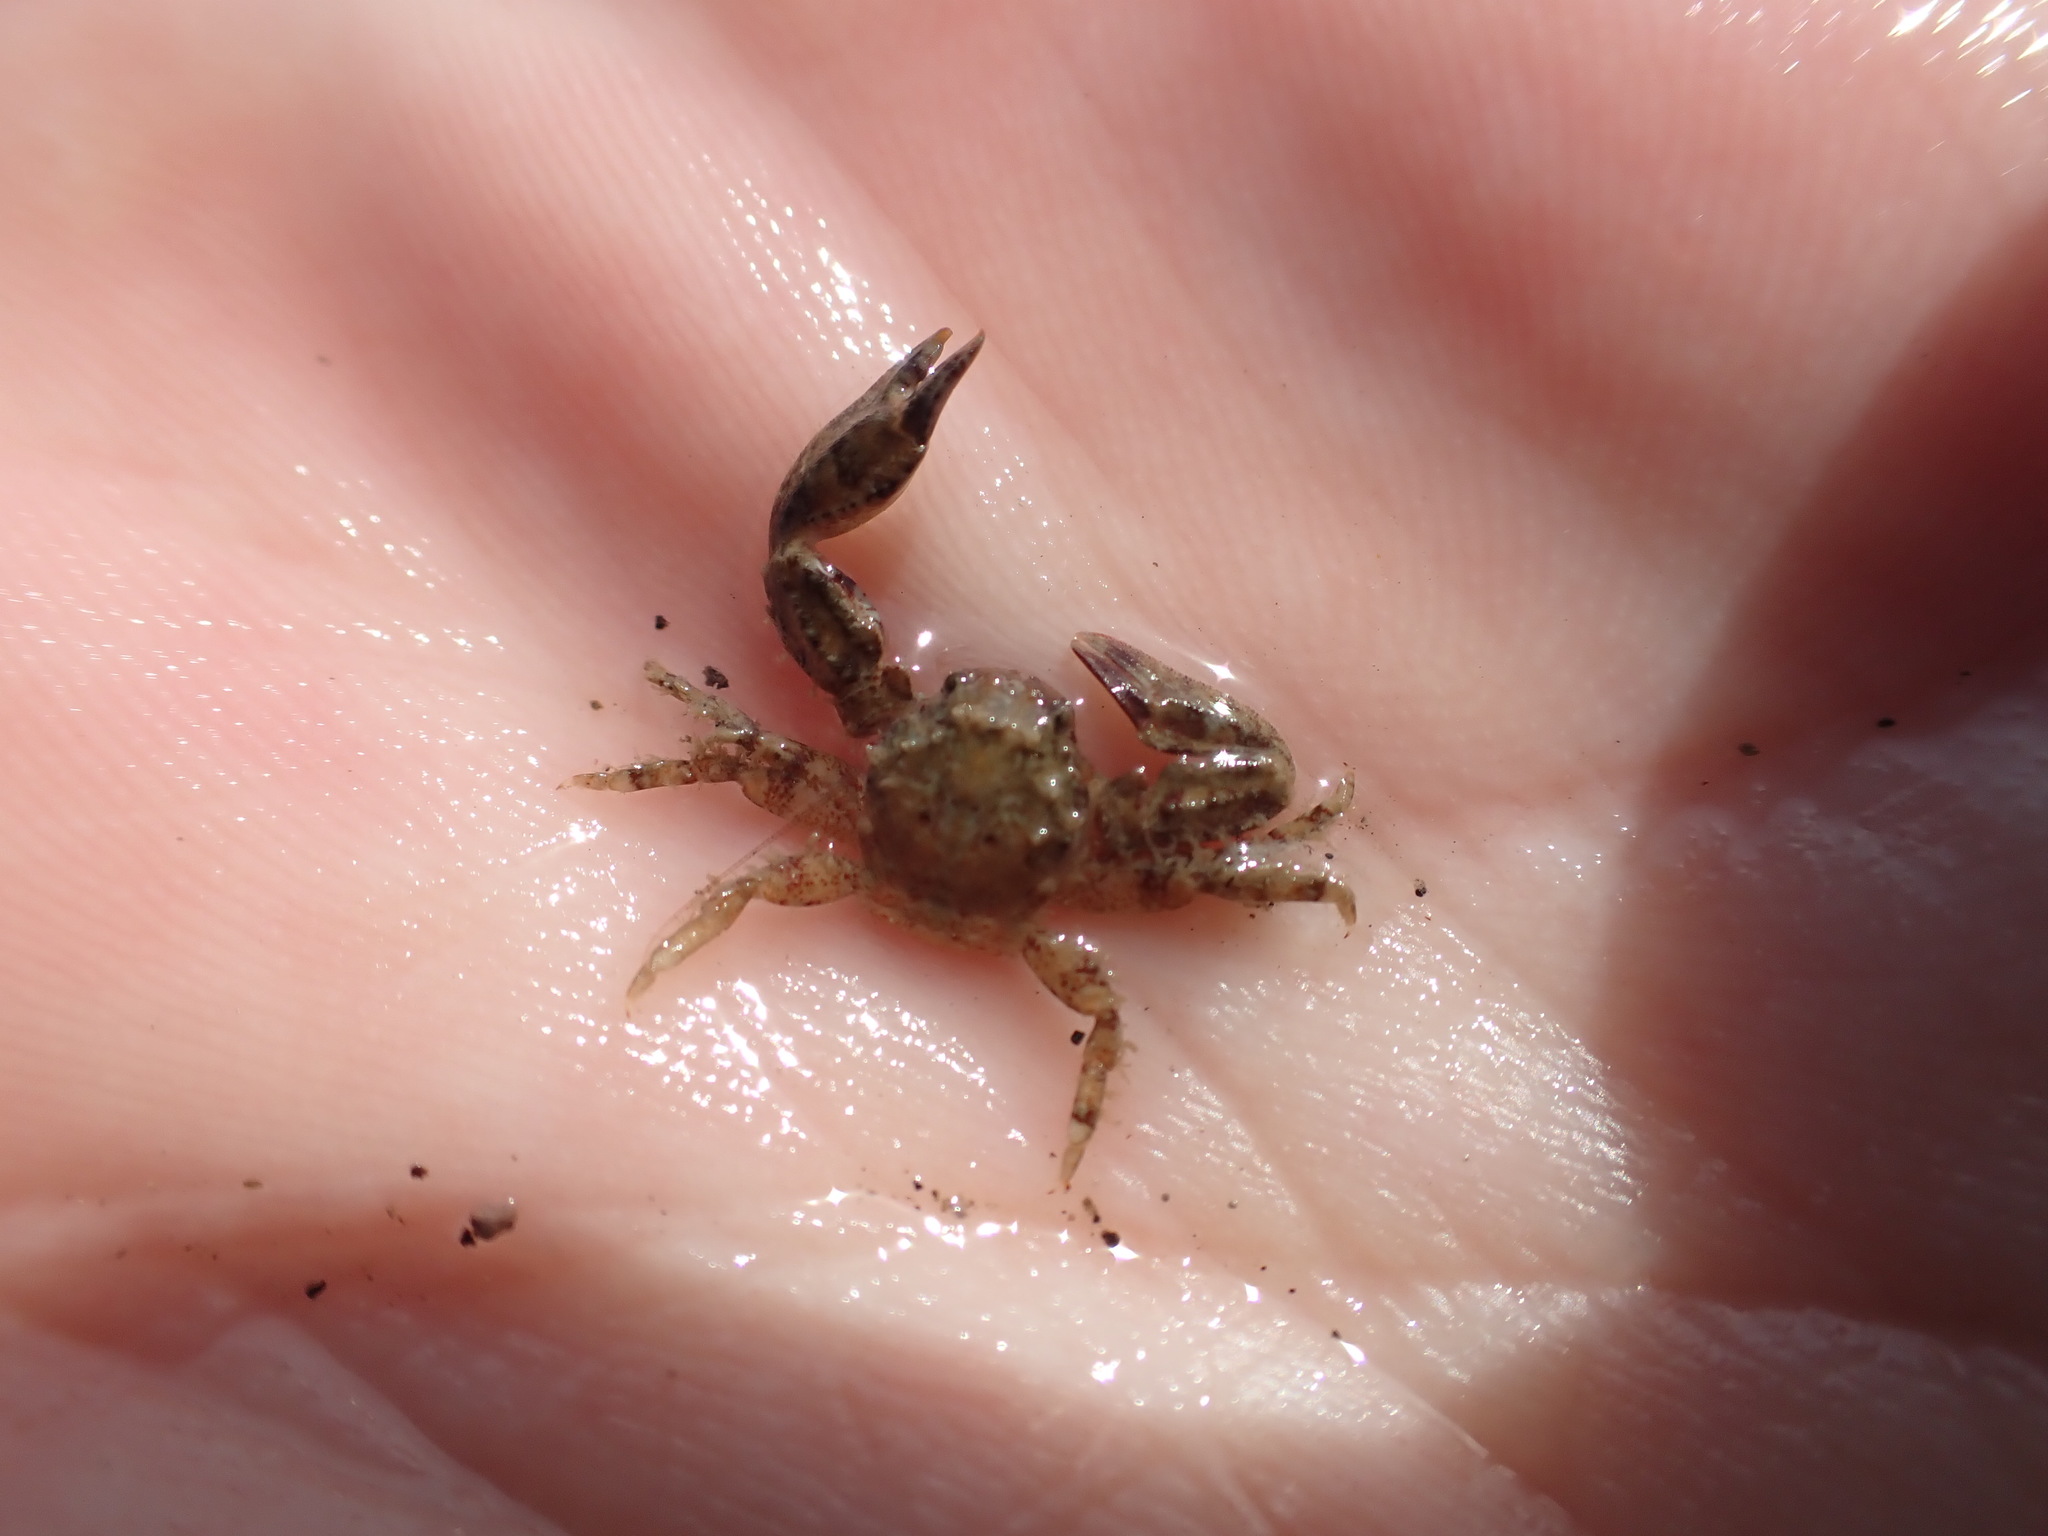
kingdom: Animalia
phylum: Arthropoda
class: Malacostraca
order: Decapoda
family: Porcellanidae
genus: Petrolisthes
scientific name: Petrolisthes novaezelandiae
